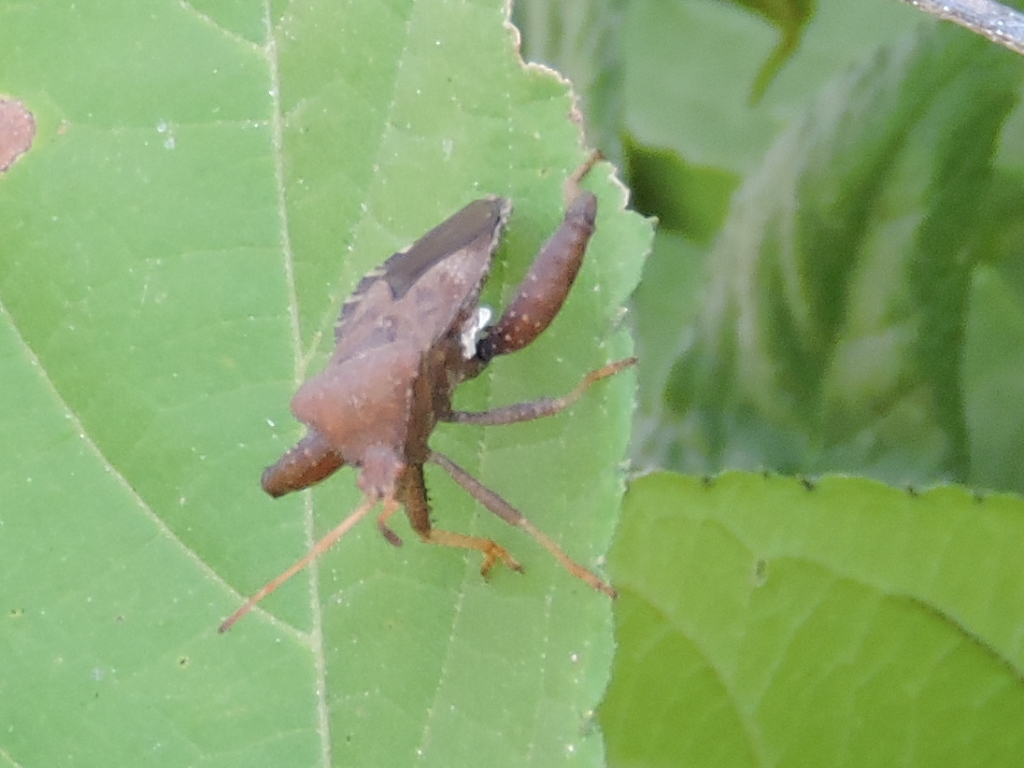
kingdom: Animalia
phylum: Arthropoda
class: Insecta
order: Hemiptera
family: Coreidae
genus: Euthochtha
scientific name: Euthochtha galeator
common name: Helmeted squash bug
